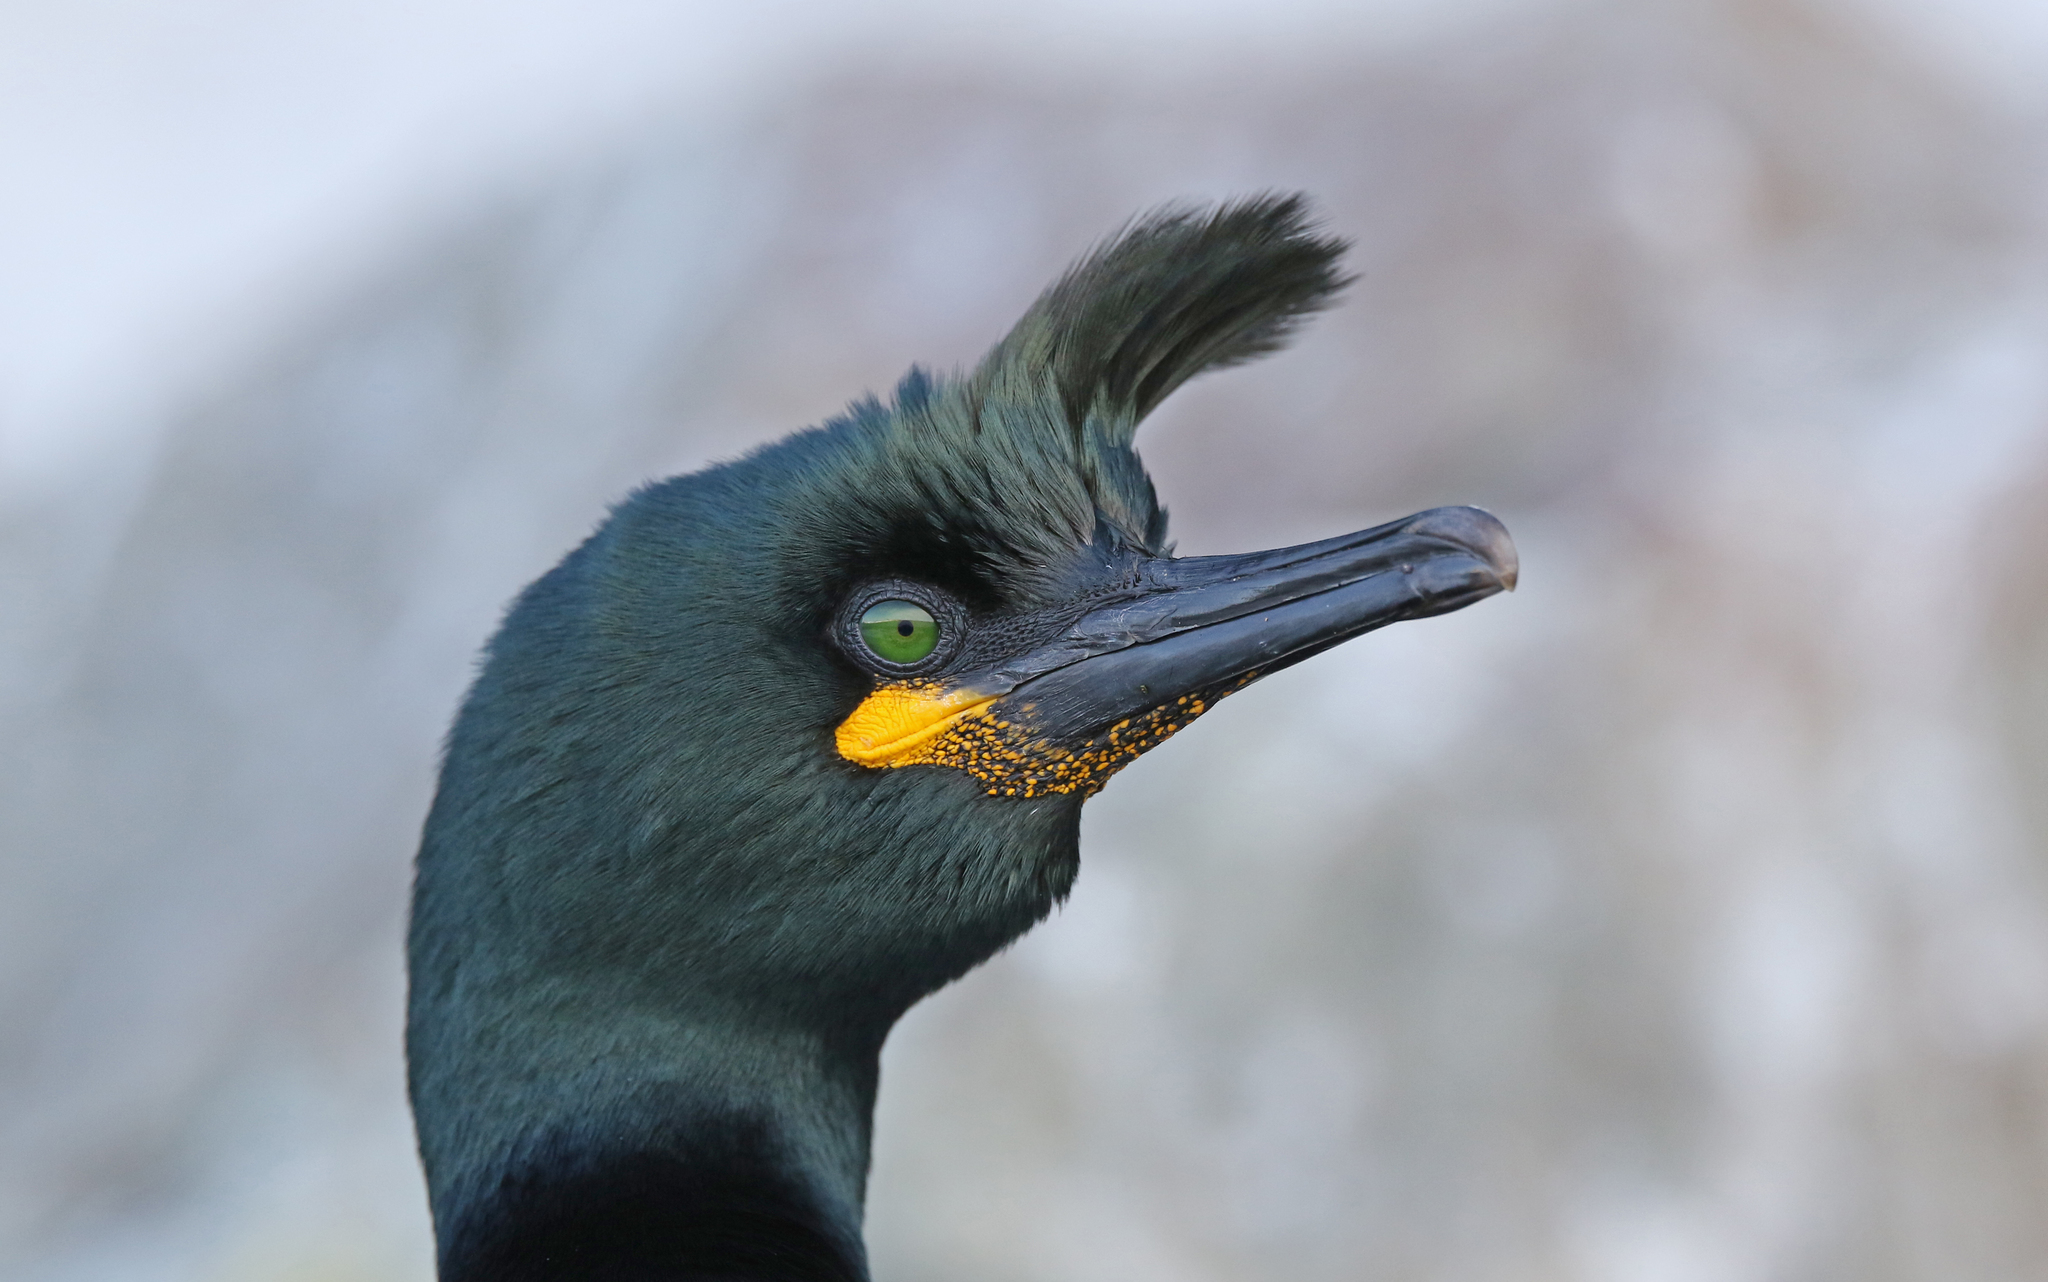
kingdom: Animalia
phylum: Chordata
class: Aves
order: Suliformes
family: Phalacrocoracidae
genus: Phalacrocorax
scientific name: Phalacrocorax aristotelis
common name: European shag
